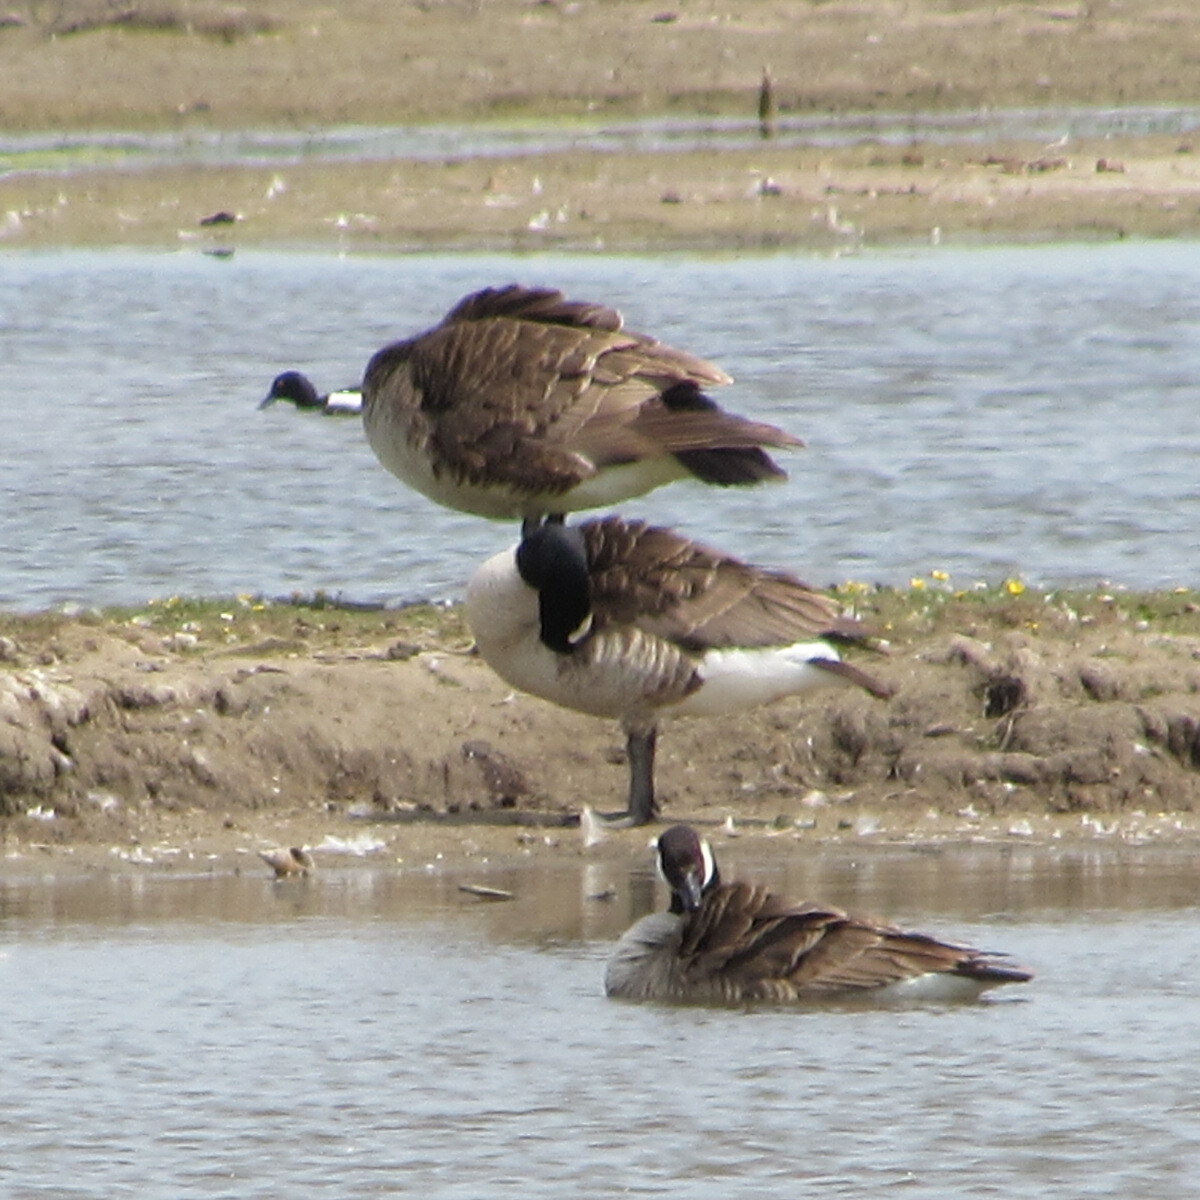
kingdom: Animalia
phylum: Chordata
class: Aves
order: Anseriformes
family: Anatidae
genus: Branta
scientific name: Branta canadensis
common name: Canada goose
